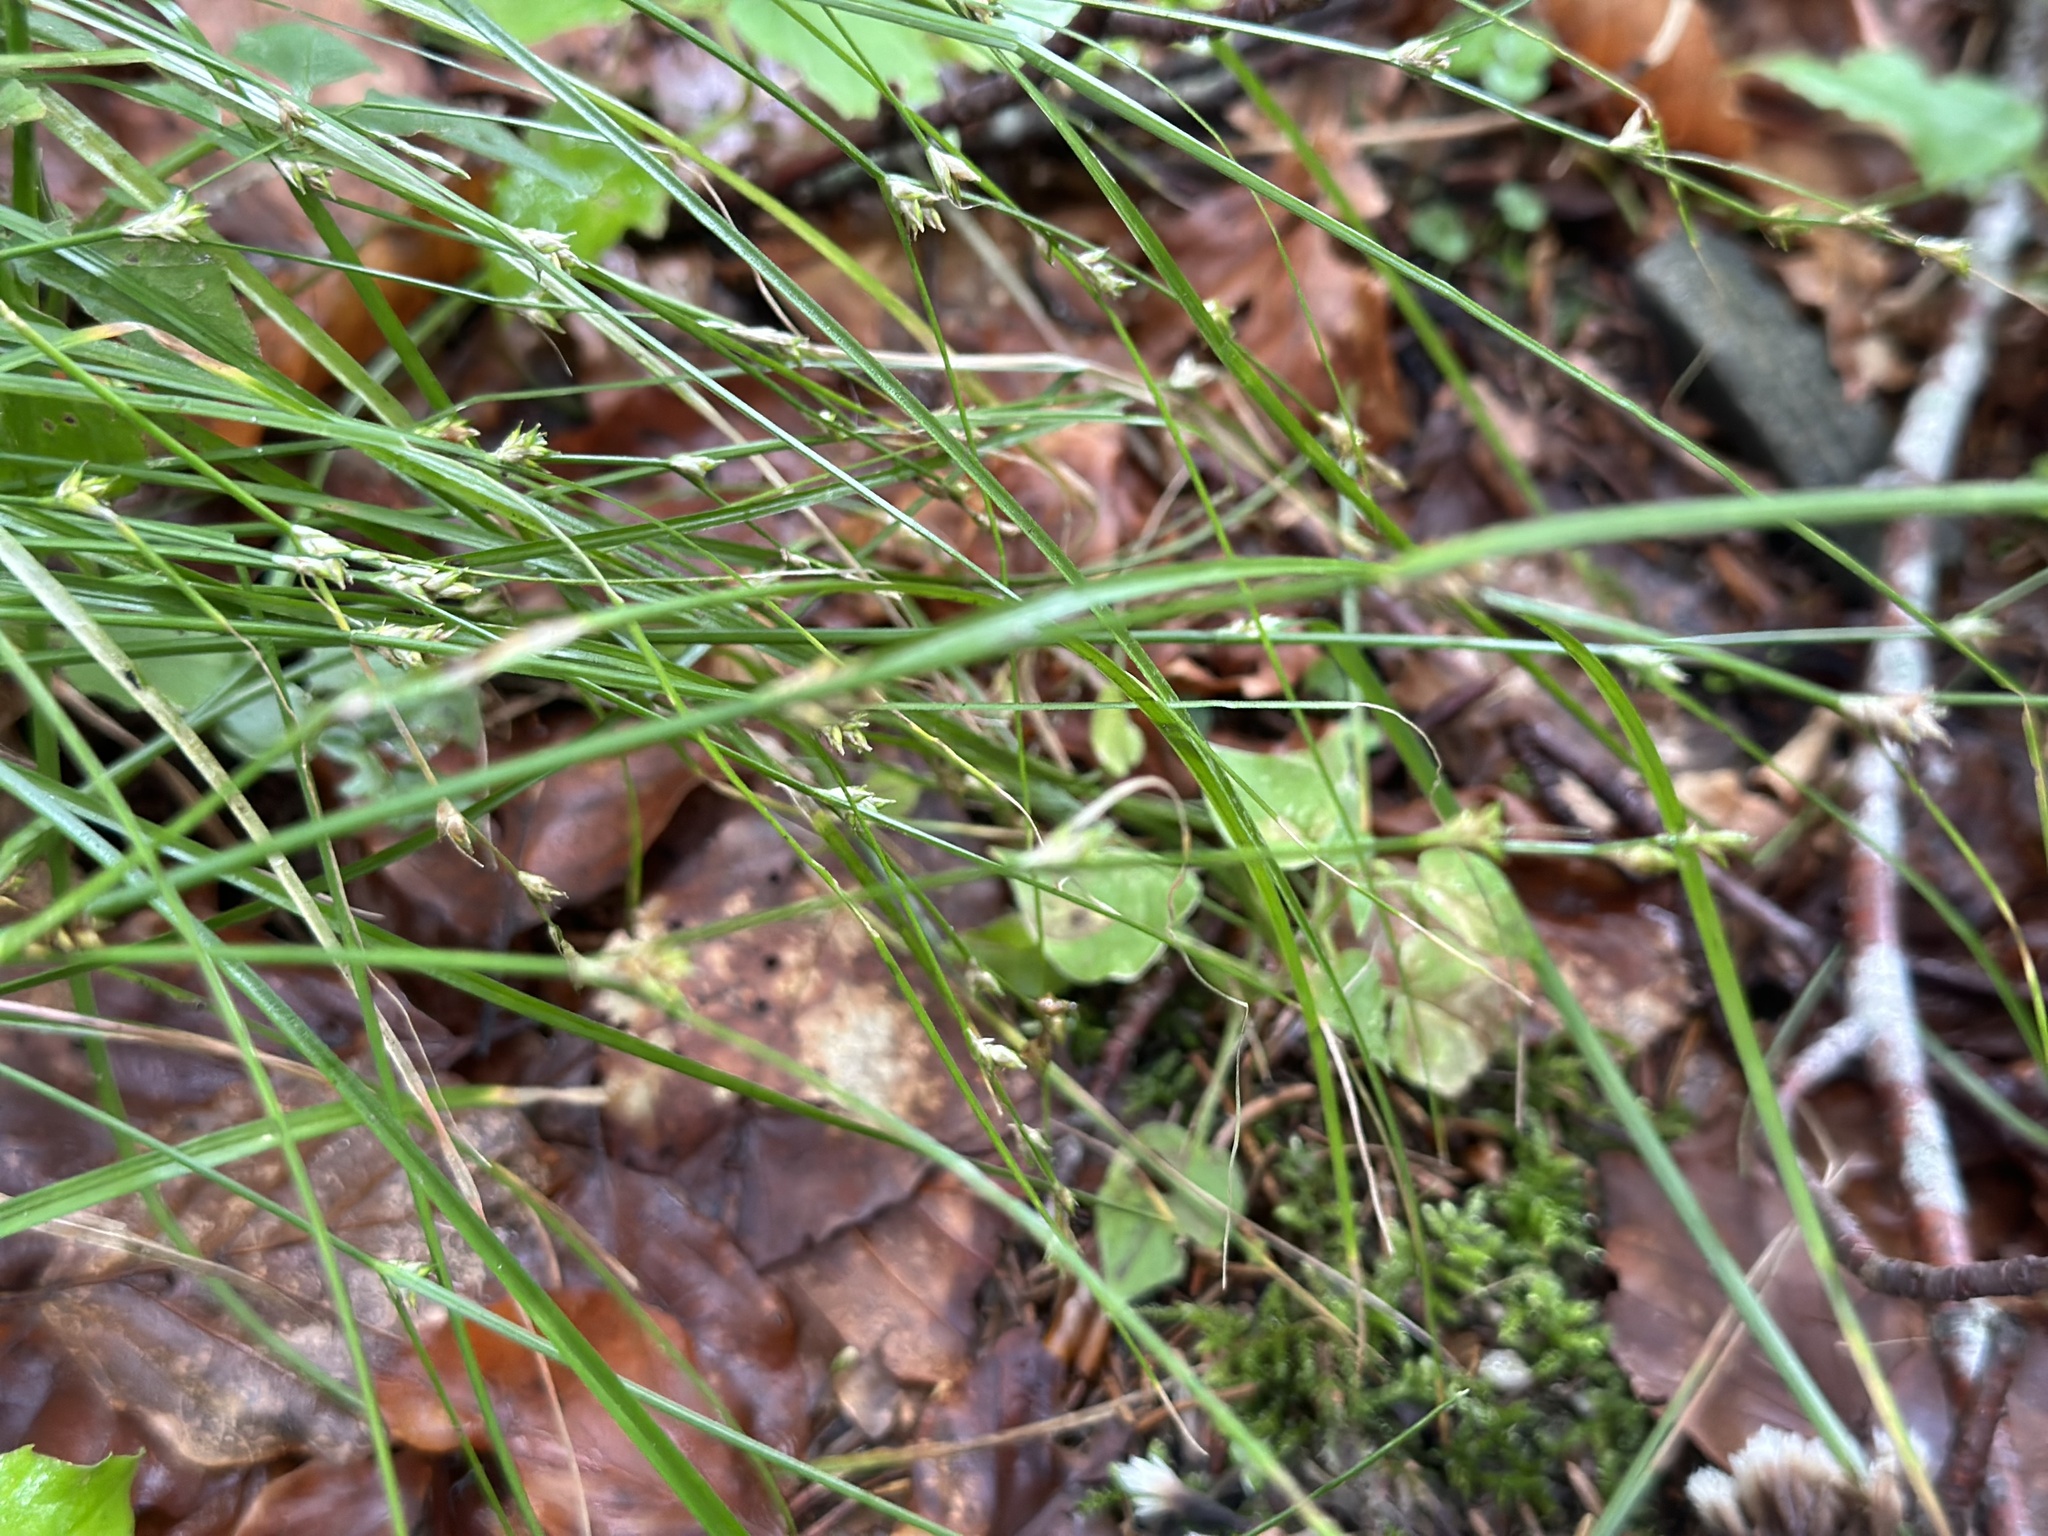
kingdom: Plantae
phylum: Tracheophyta
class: Liliopsida
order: Poales
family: Cyperaceae
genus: Carex
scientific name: Carex remota
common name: Remote sedge
